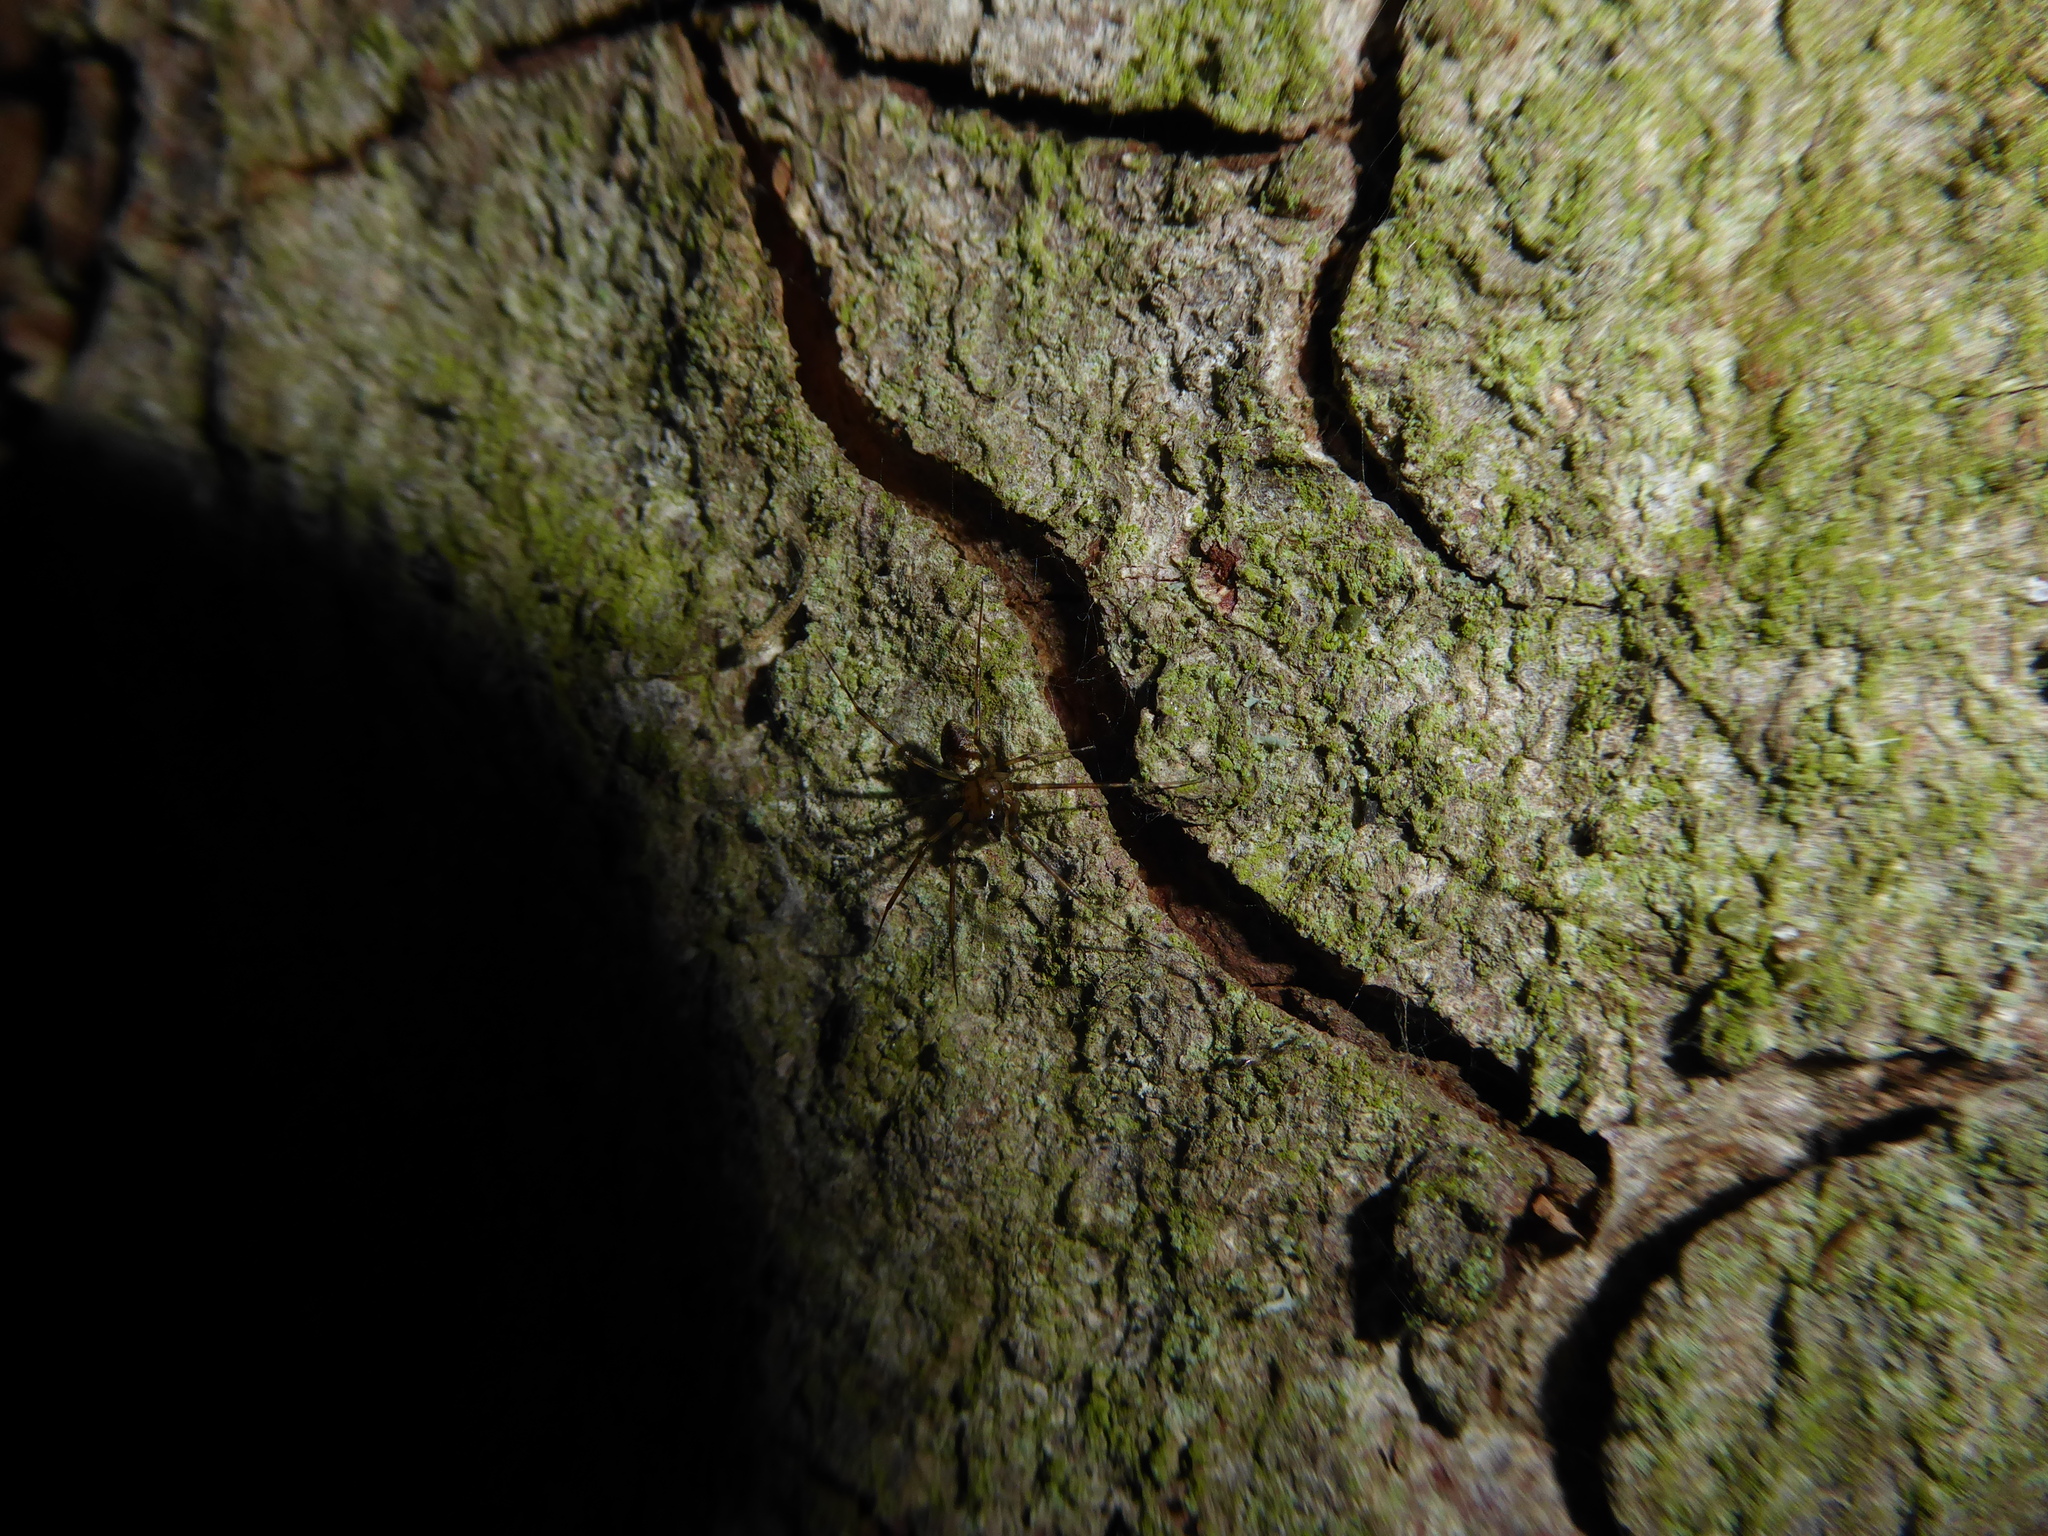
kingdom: Animalia
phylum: Arthropoda
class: Arachnida
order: Araneae
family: Linyphiidae
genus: Drapetisca
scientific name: Drapetisca socialis
